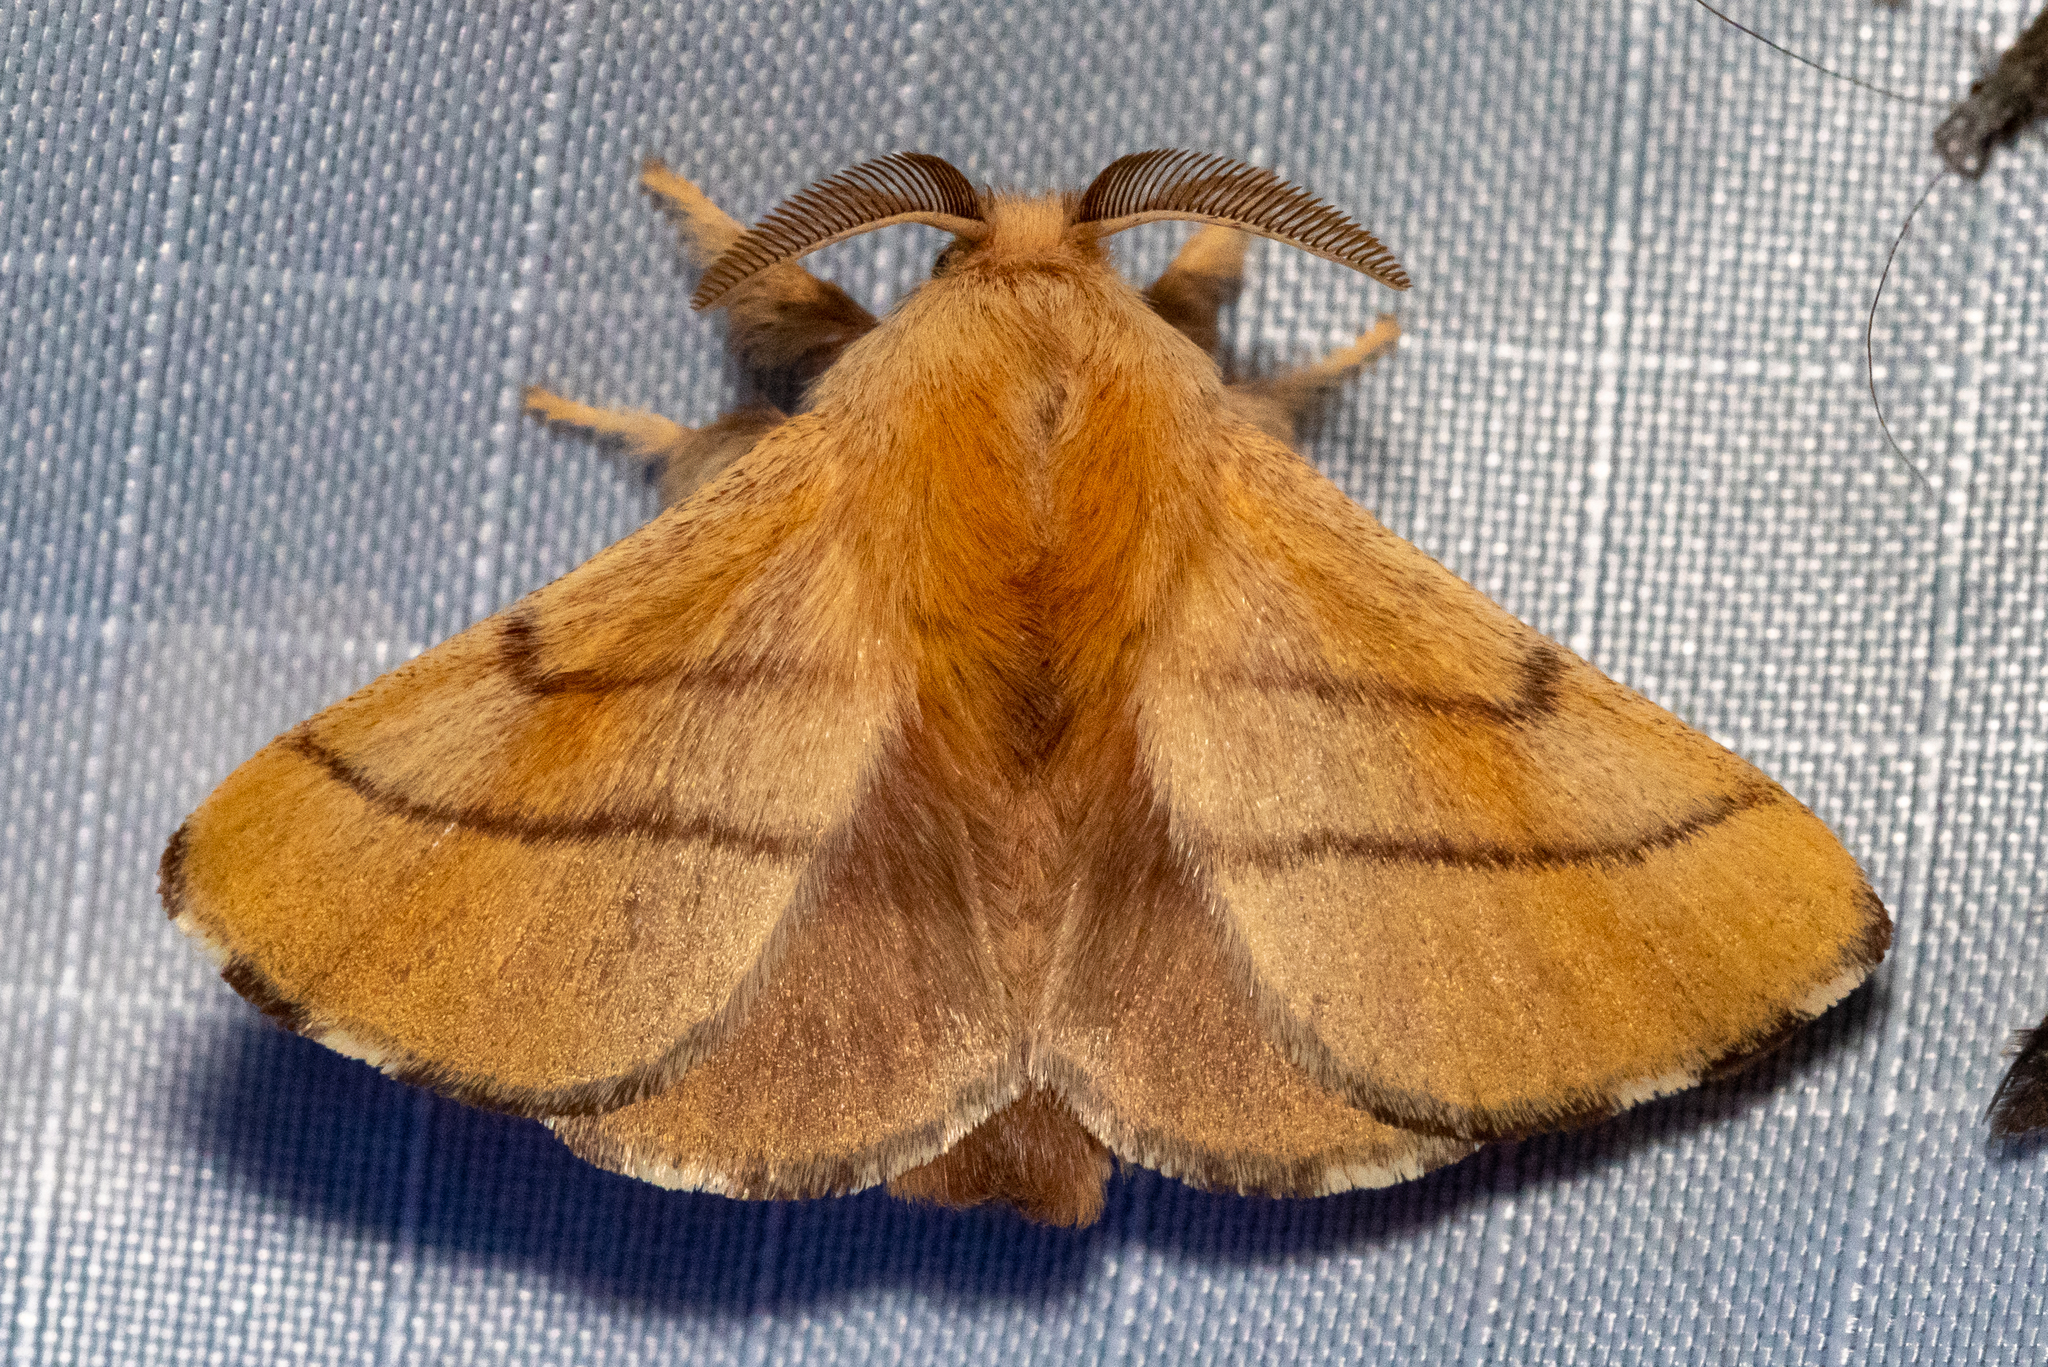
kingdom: Animalia
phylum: Arthropoda
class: Insecta
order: Lepidoptera
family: Lasiocampidae
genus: Malacosoma
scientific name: Malacosoma disstria
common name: Forest tent caterpillar
